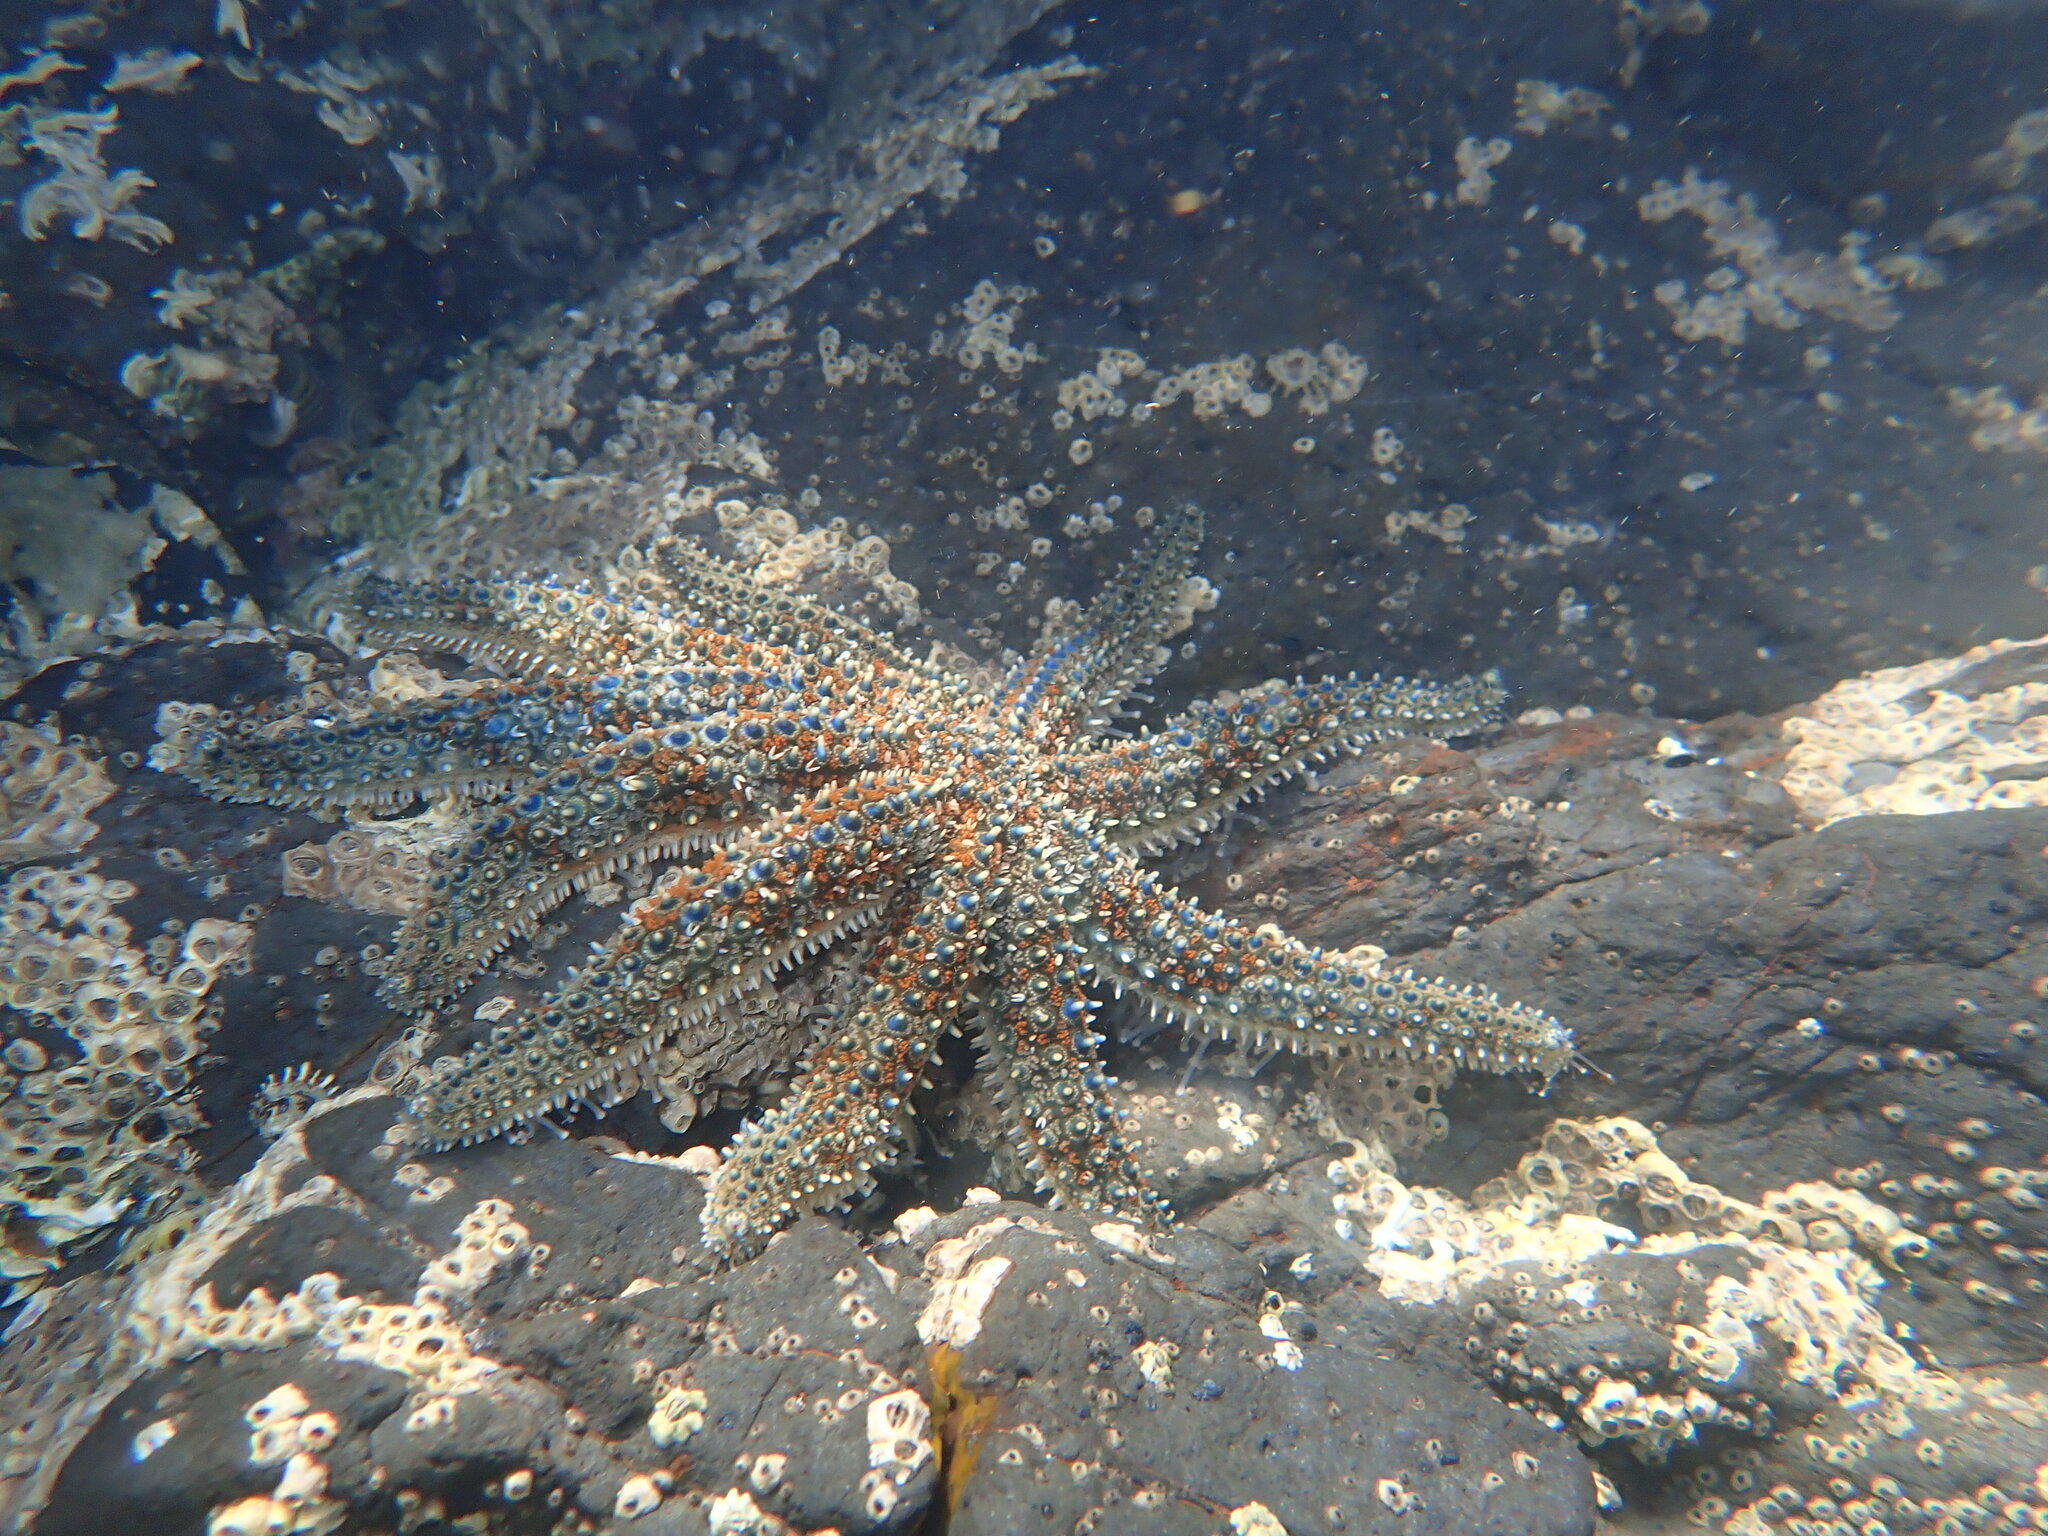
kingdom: Animalia
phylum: Echinodermata
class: Asteroidea
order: Forcipulatida
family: Asteriidae
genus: Coscinasterias
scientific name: Coscinasterias muricata
